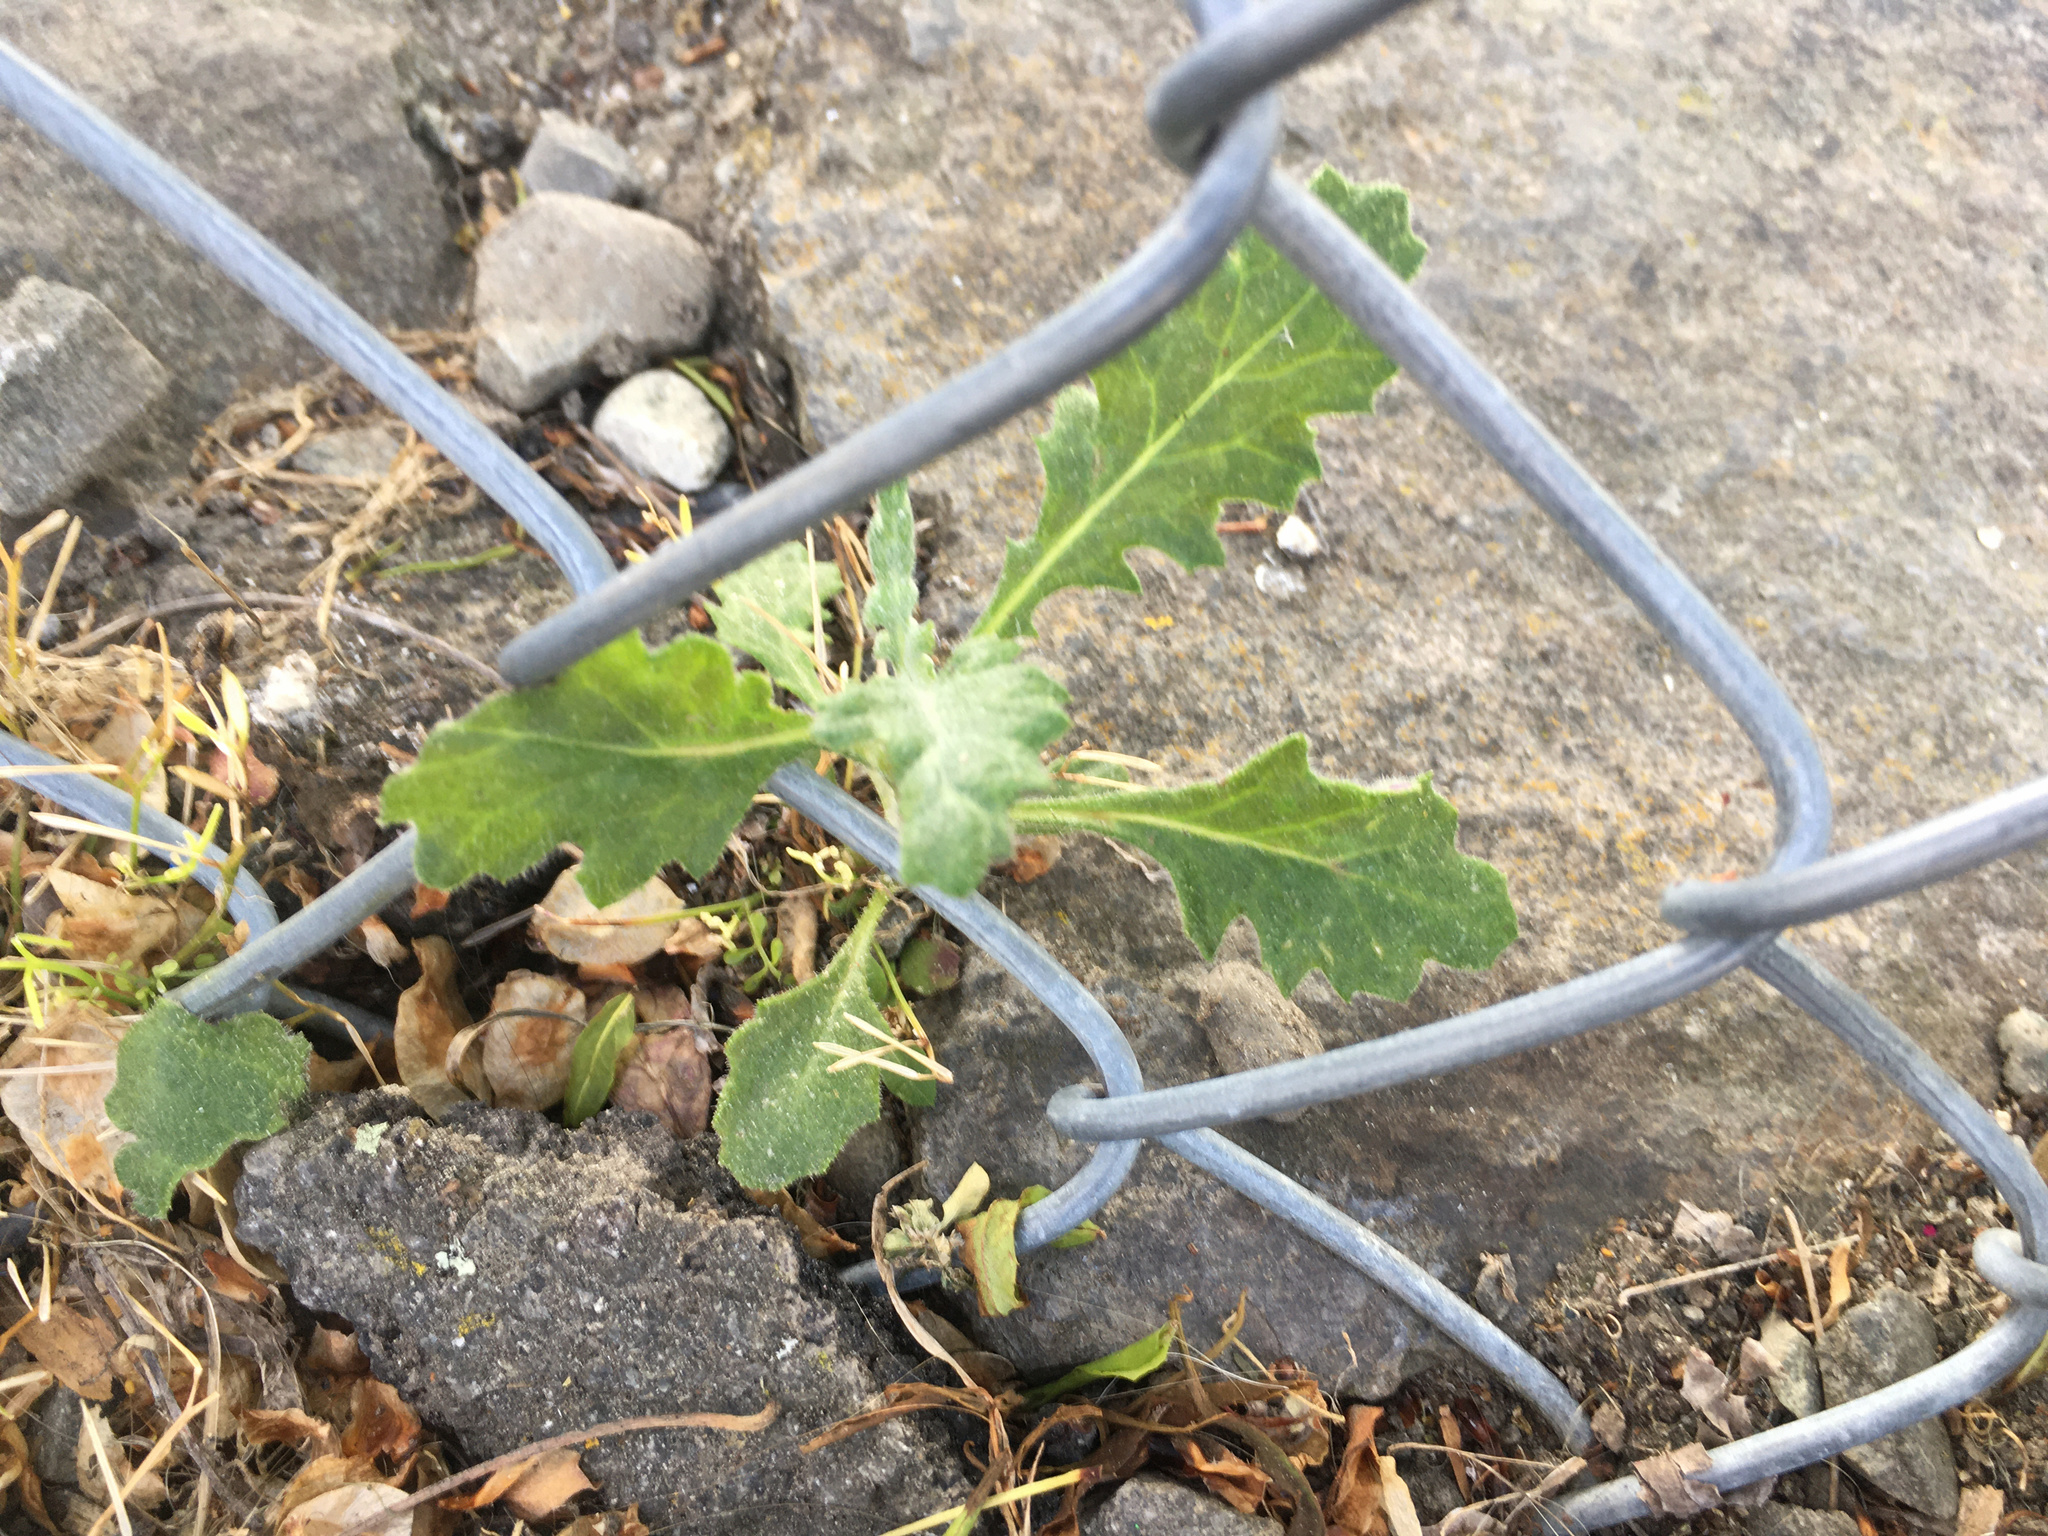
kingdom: Plantae
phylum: Tracheophyta
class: Magnoliopsida
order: Asterales
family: Asteraceae
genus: Senecio
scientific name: Senecio glomeratus
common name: Cutleaf burnweed
